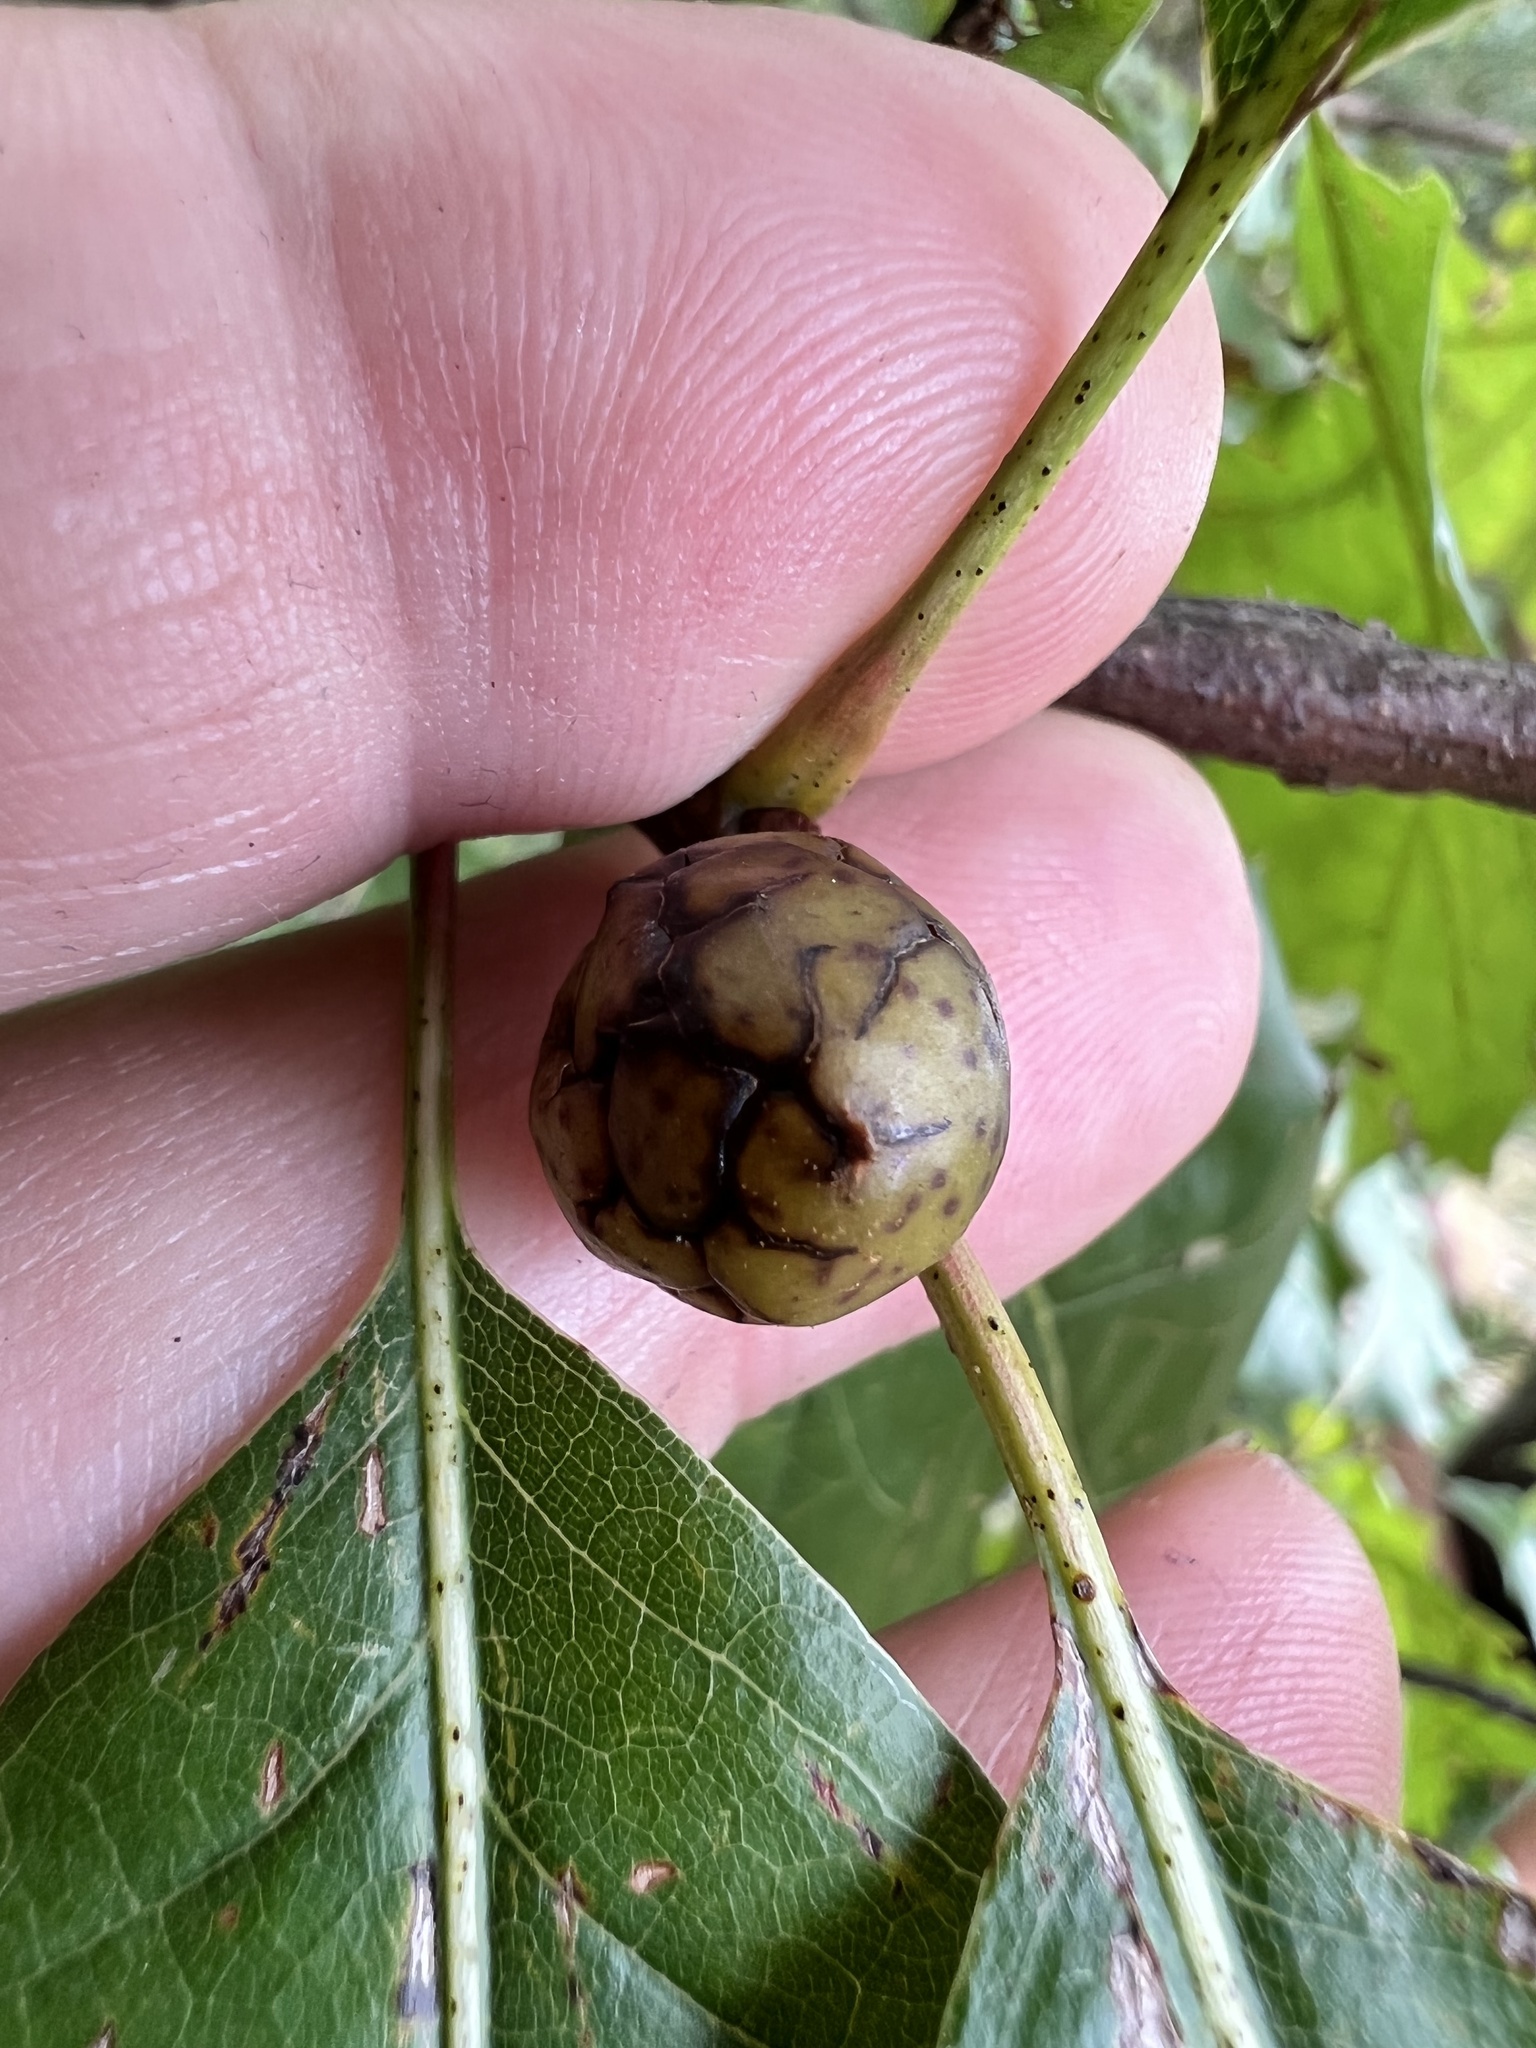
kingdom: Animalia
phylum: Arthropoda
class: Insecta
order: Hymenoptera
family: Cynipidae
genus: Amphibolips
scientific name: Amphibolips
